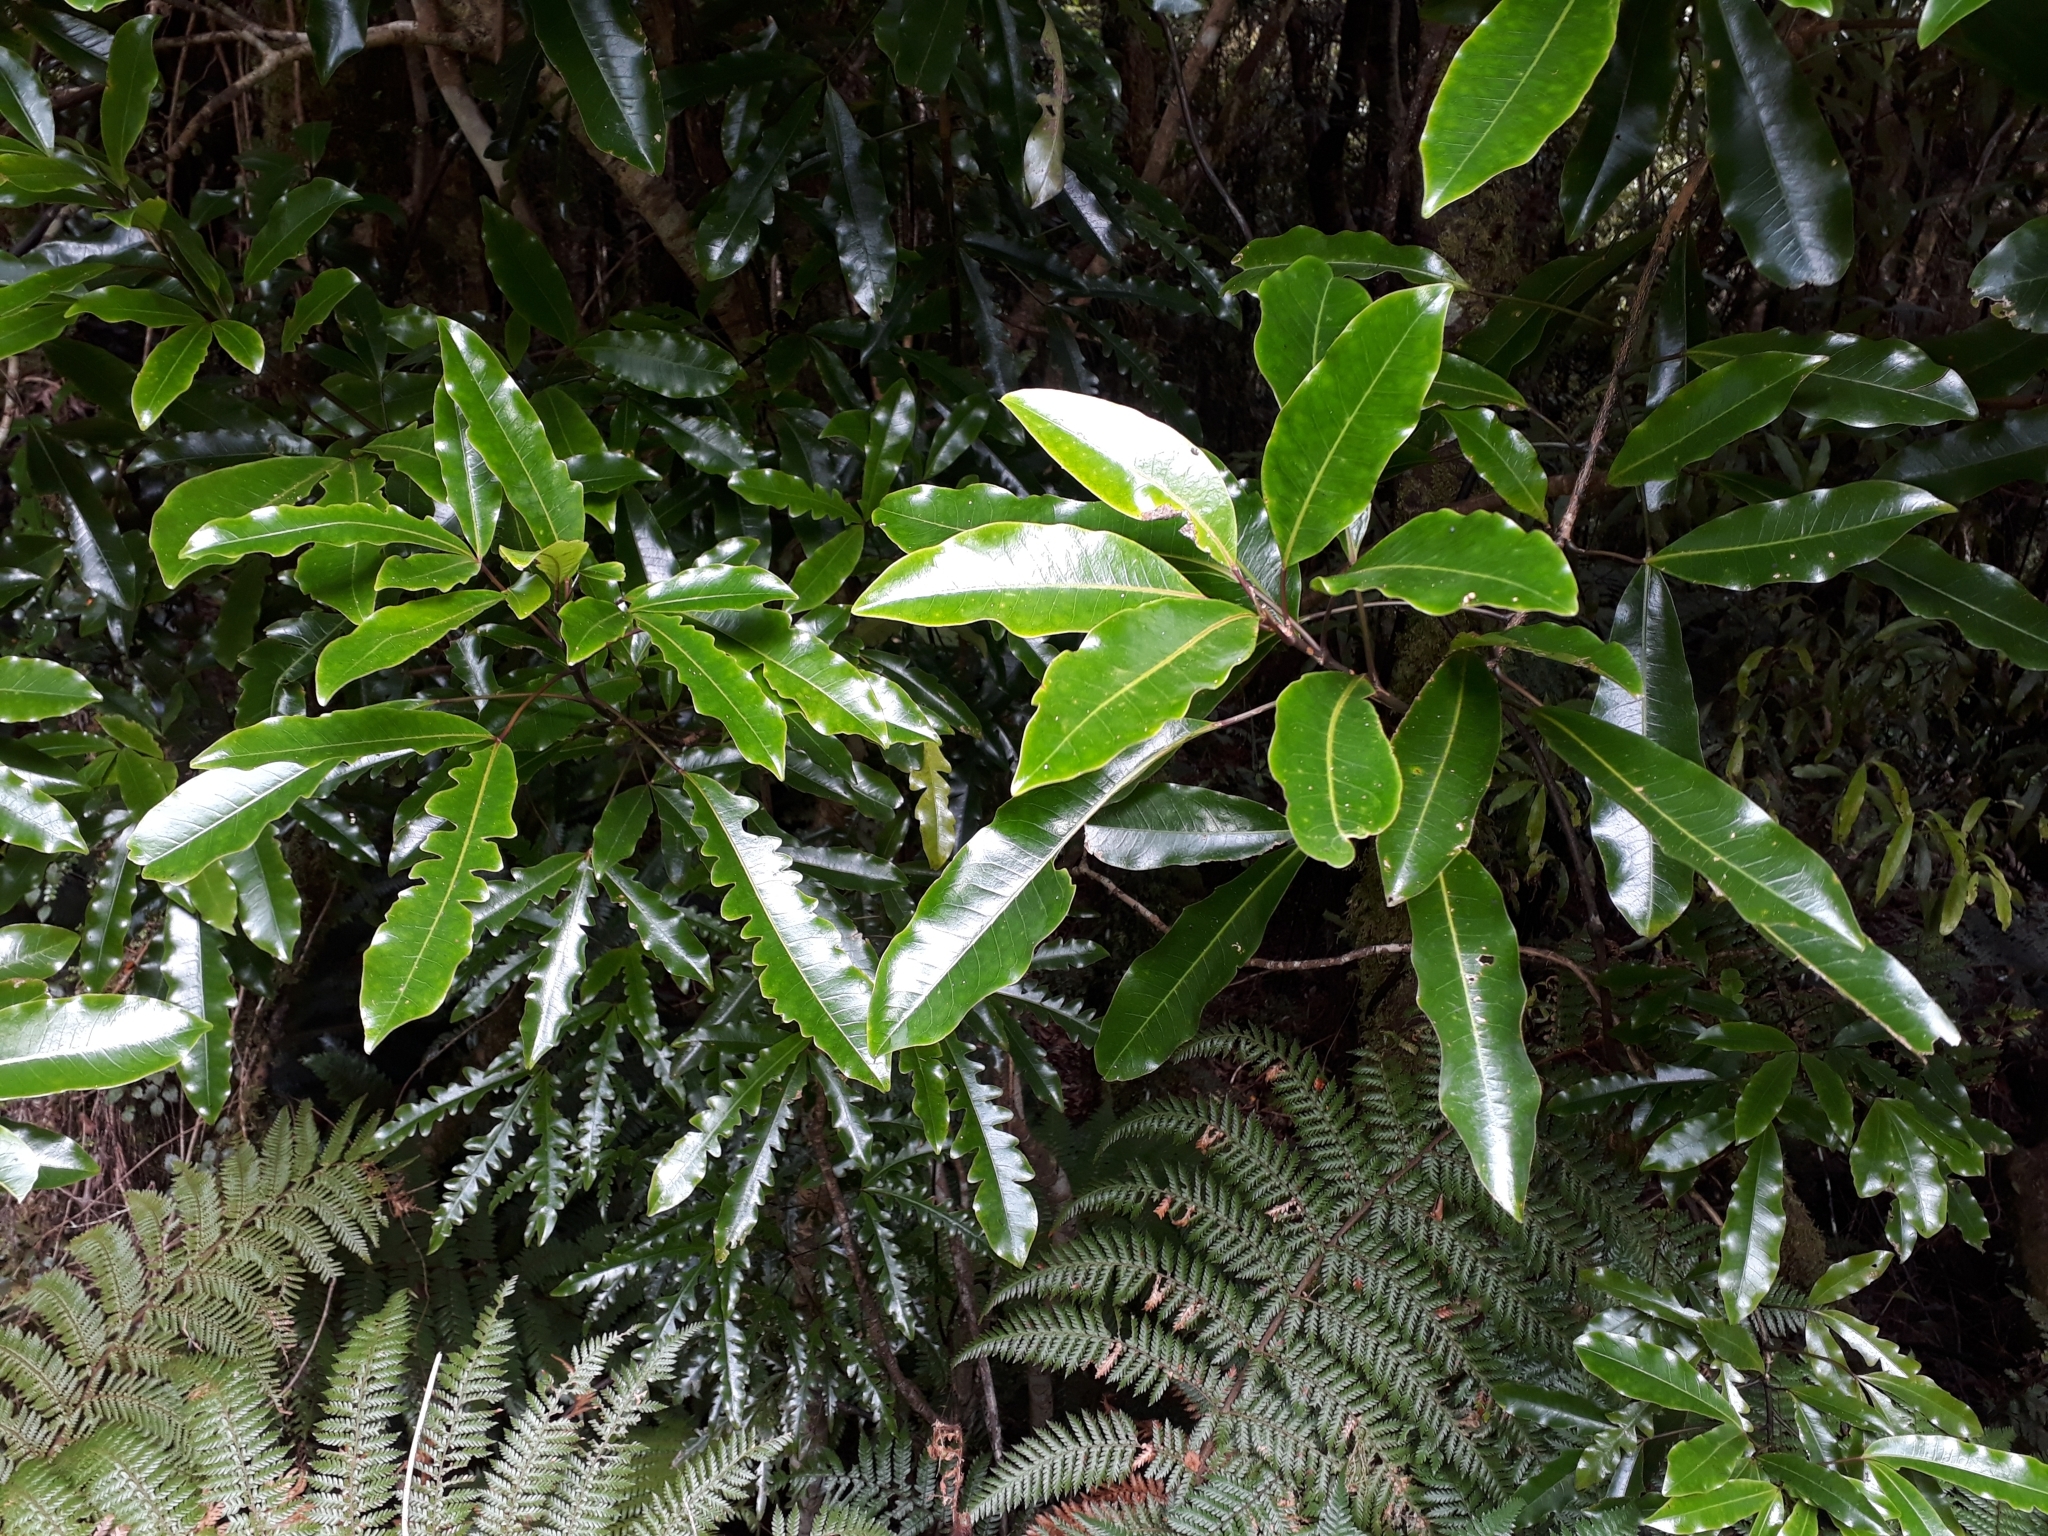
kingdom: Plantae
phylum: Tracheophyta
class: Magnoliopsida
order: Apiales
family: Araliaceae
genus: Raukaua
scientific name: Raukaua edgerleyi
